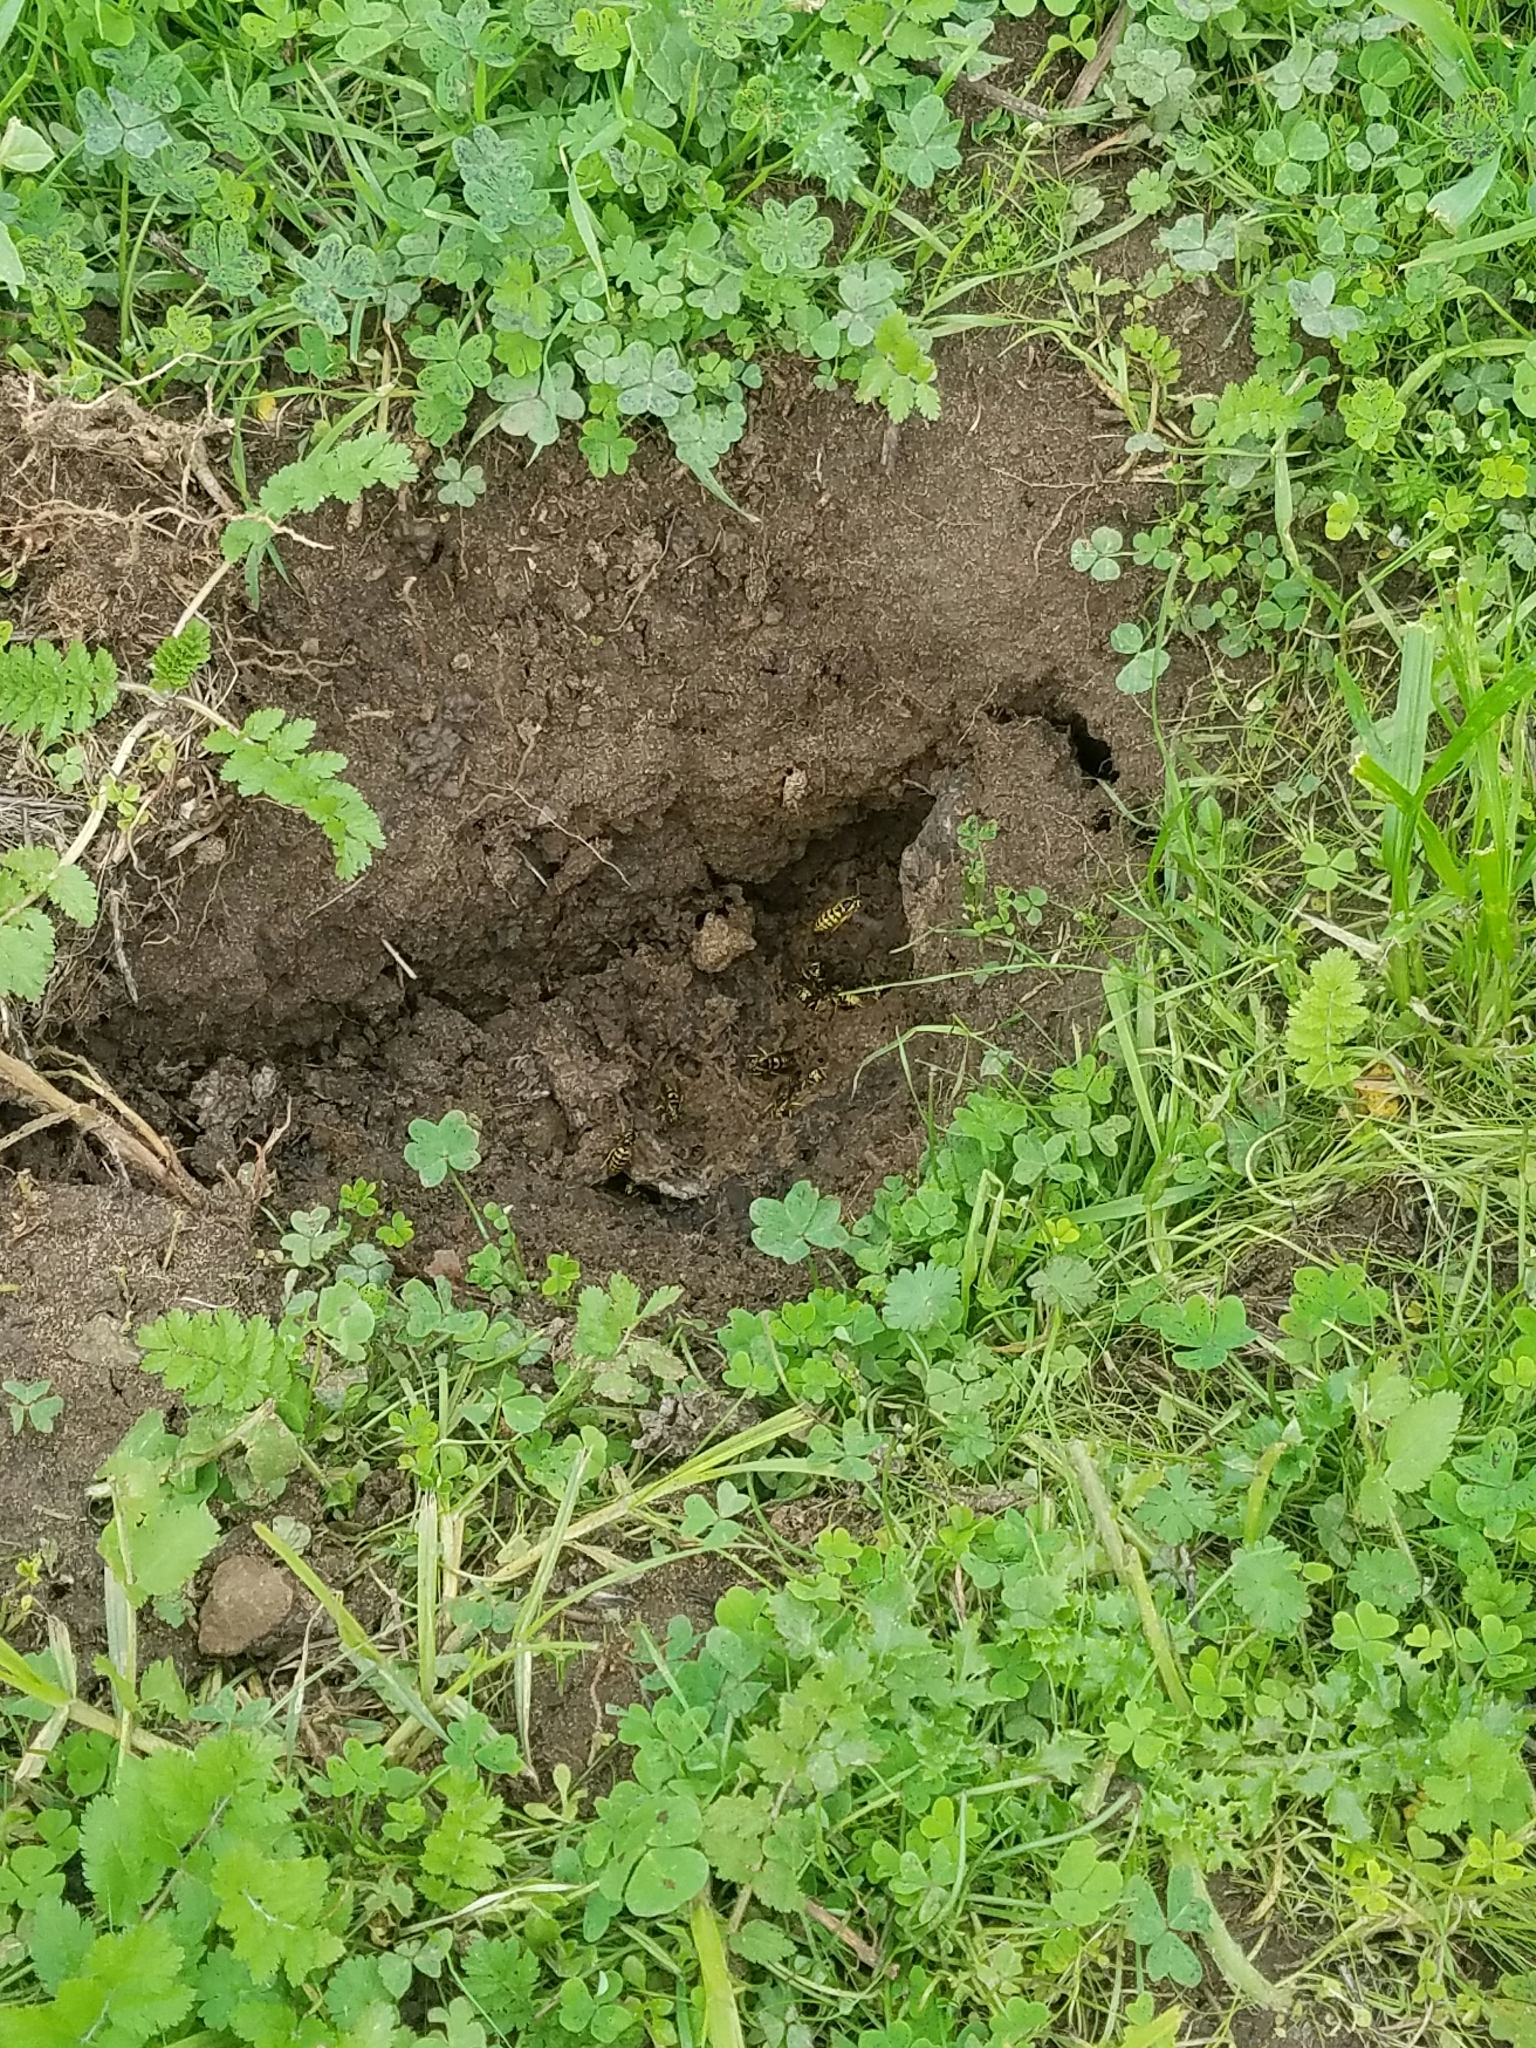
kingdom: Animalia
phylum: Arthropoda
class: Insecta
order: Hymenoptera
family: Vespidae
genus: Vespula
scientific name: Vespula pensylvanica
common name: Western yellowjacket
